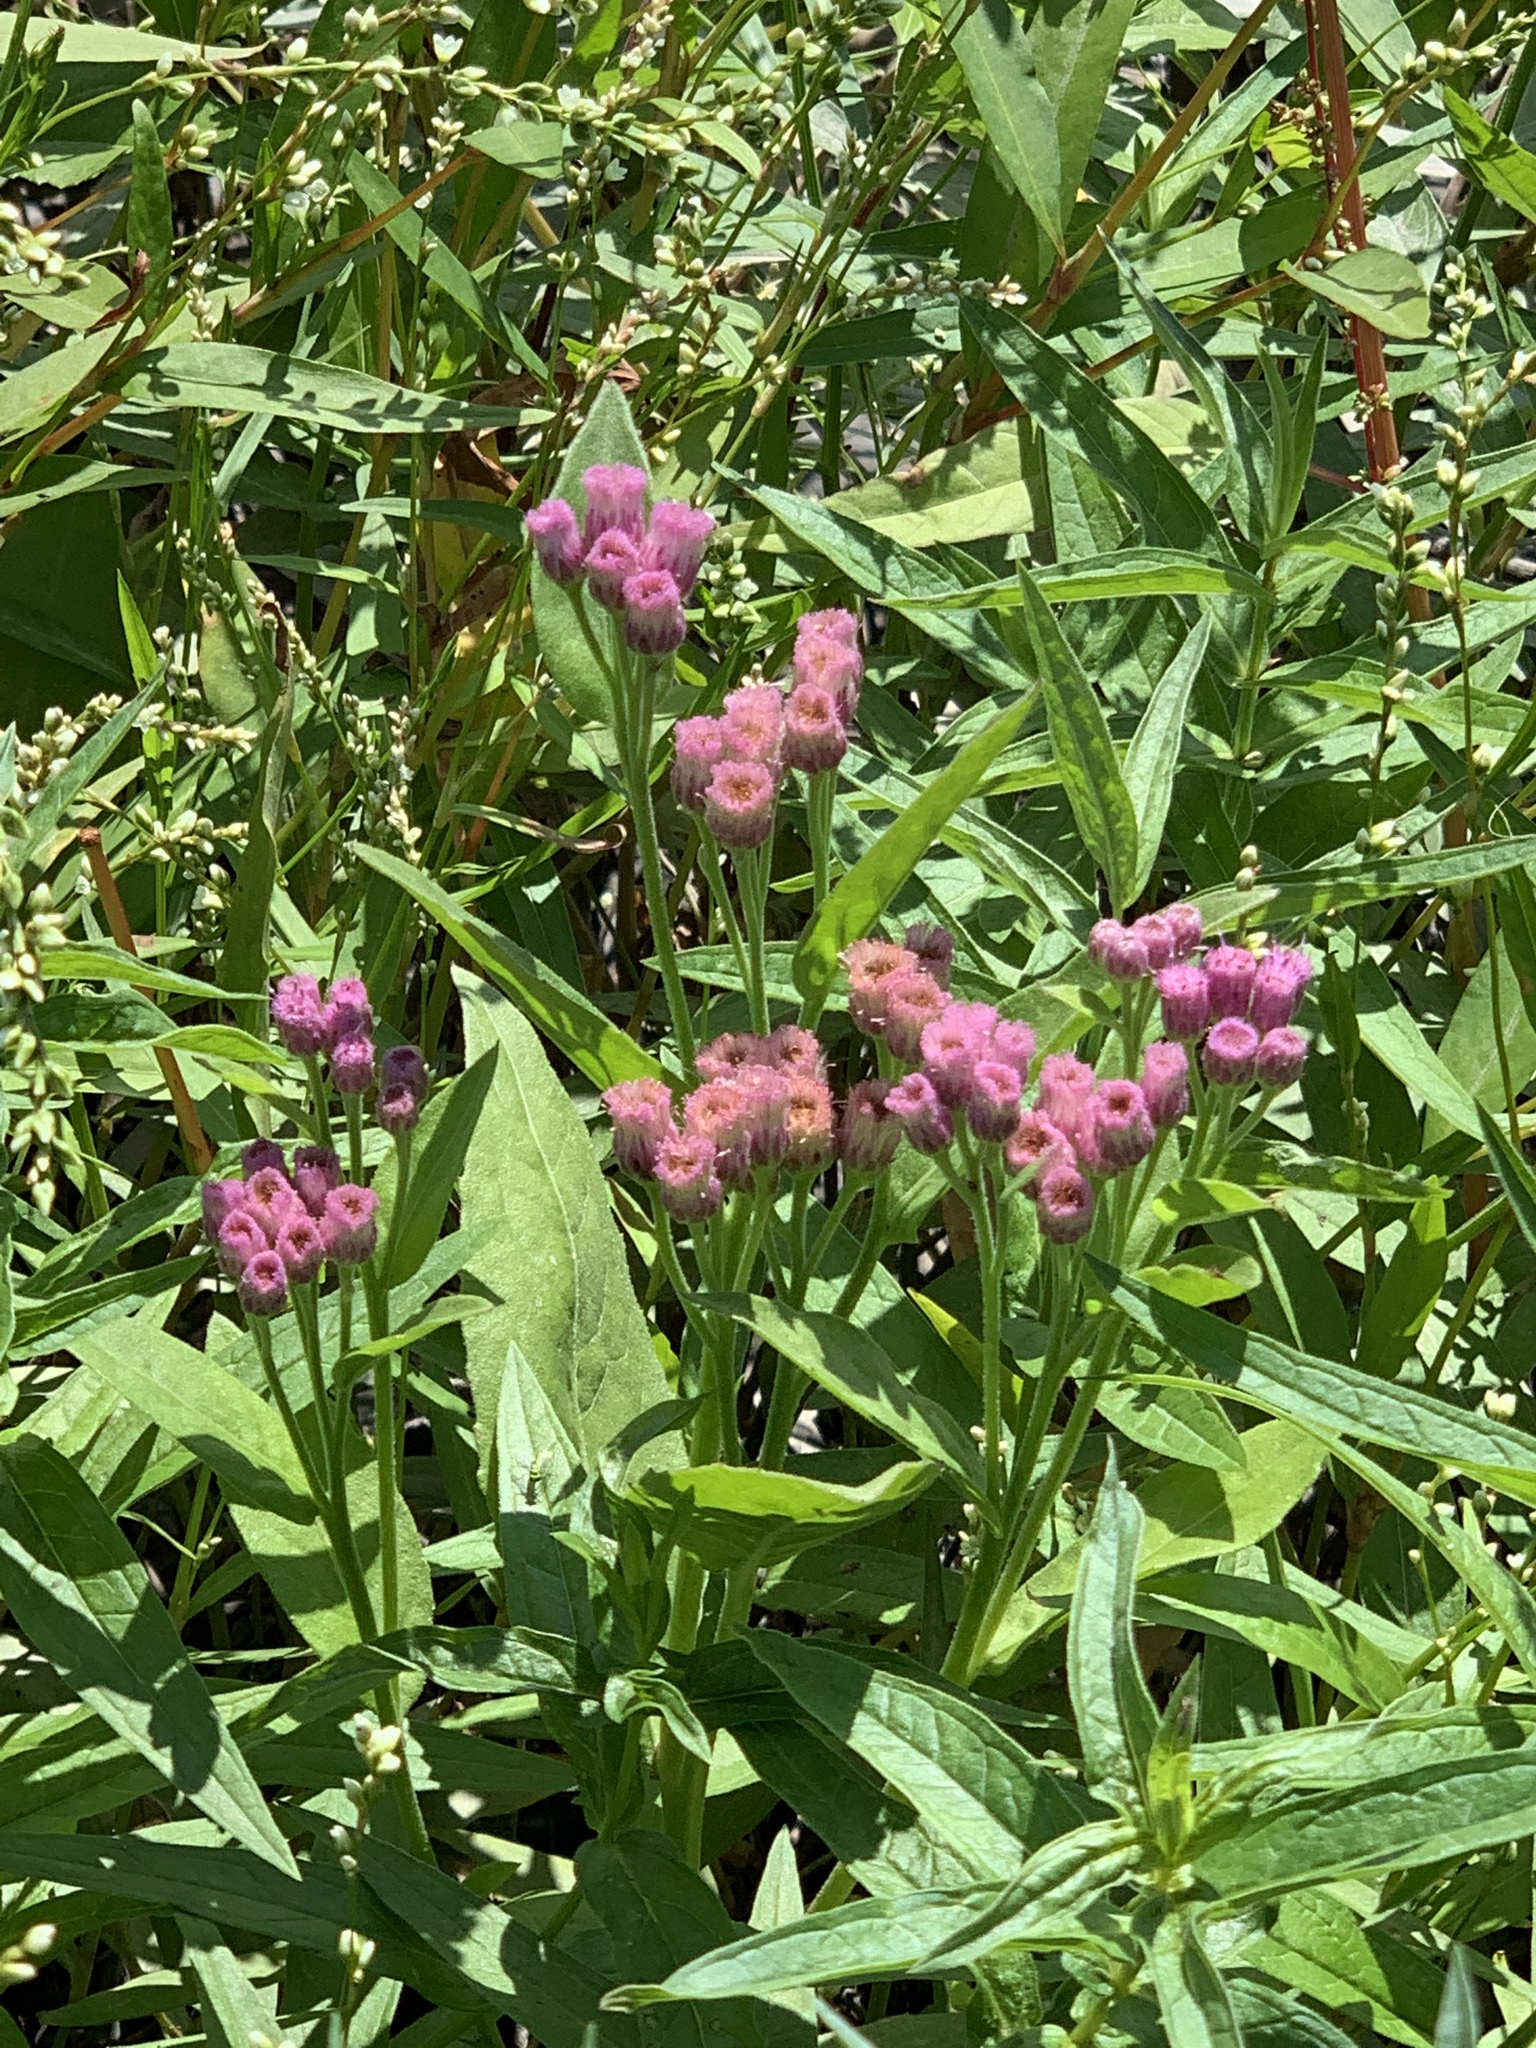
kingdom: Plantae
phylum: Tracheophyta
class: Magnoliopsida
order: Asterales
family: Asteraceae
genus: Pluchea
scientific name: Pluchea odorata
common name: Saltmarsh fleabane
